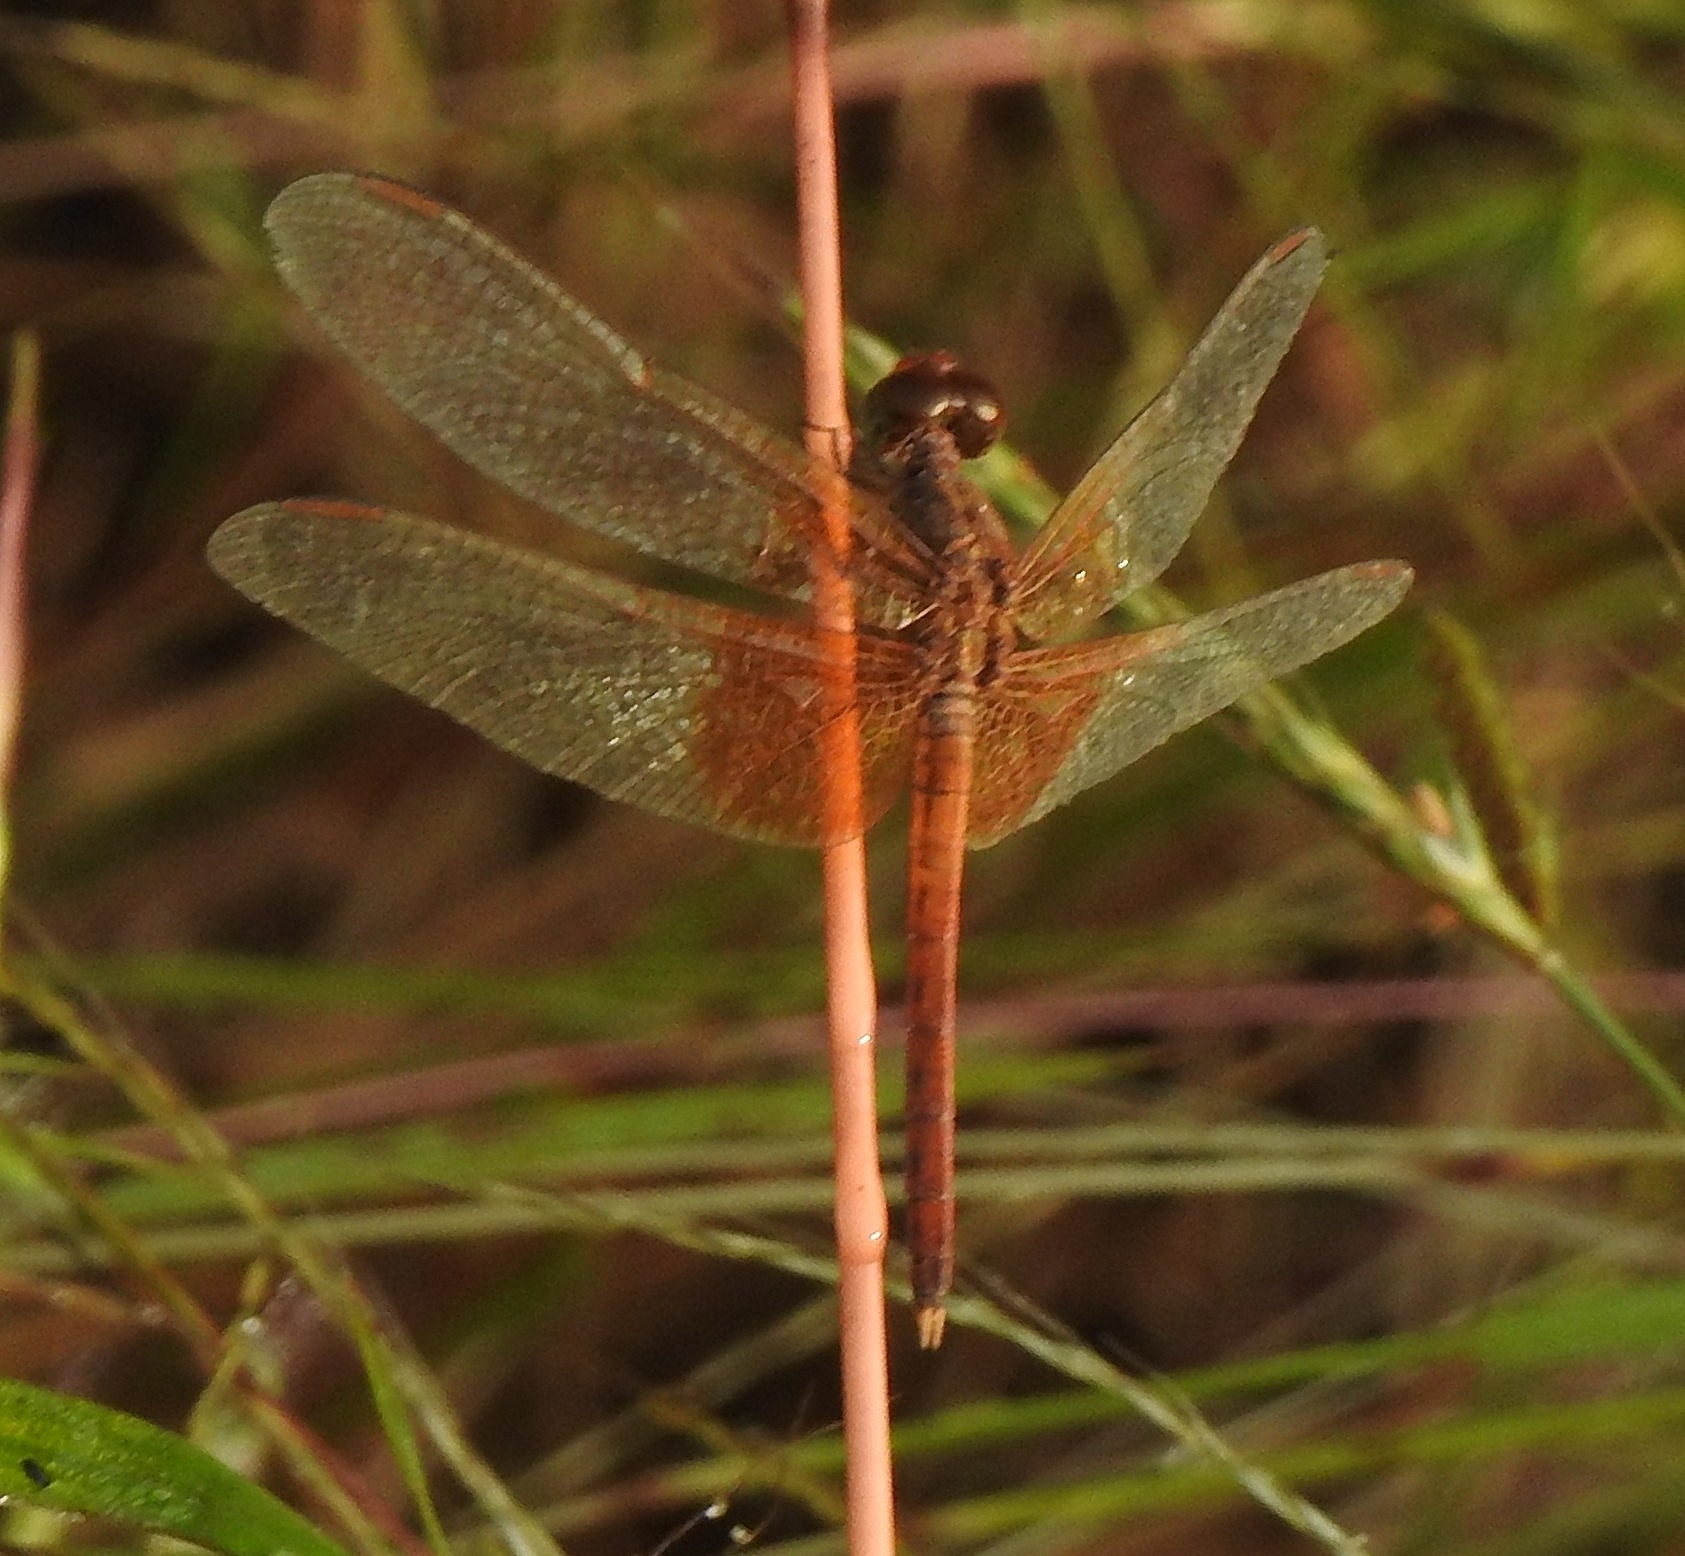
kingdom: Animalia
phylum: Arthropoda
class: Insecta
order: Odonata
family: Libellulidae
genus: Neurothemis
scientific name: Neurothemis intermedia
